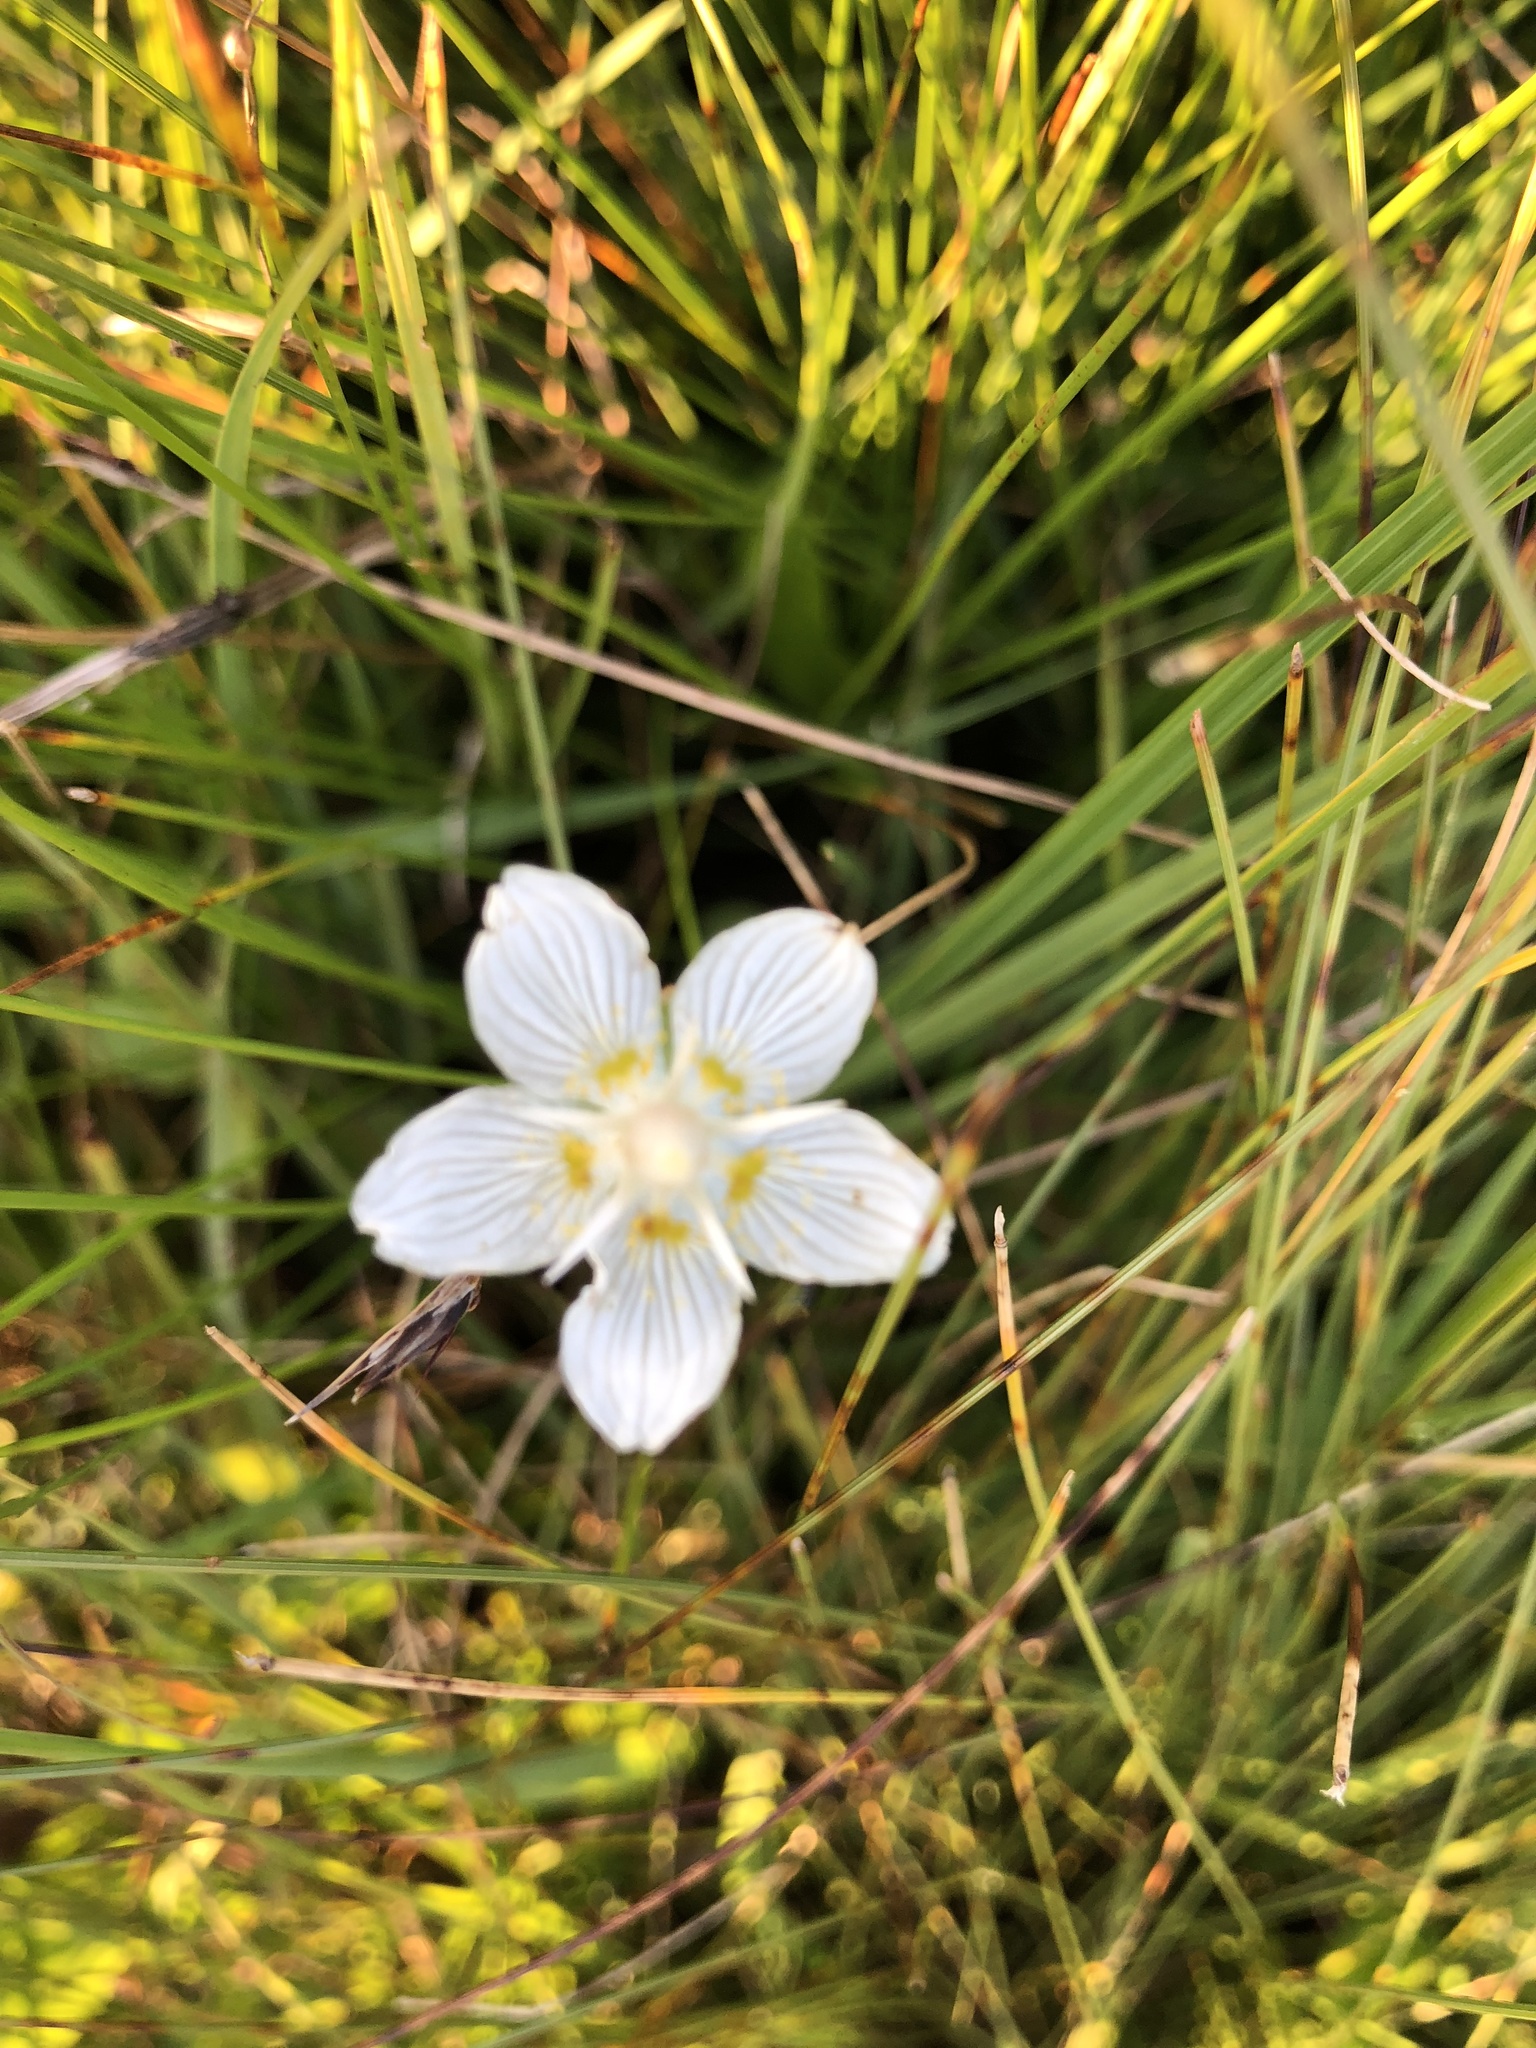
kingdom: Plantae
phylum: Tracheophyta
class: Magnoliopsida
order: Celastrales
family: Parnassiaceae
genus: Parnassia
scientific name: Parnassia palustris
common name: Grass-of-parnassus
